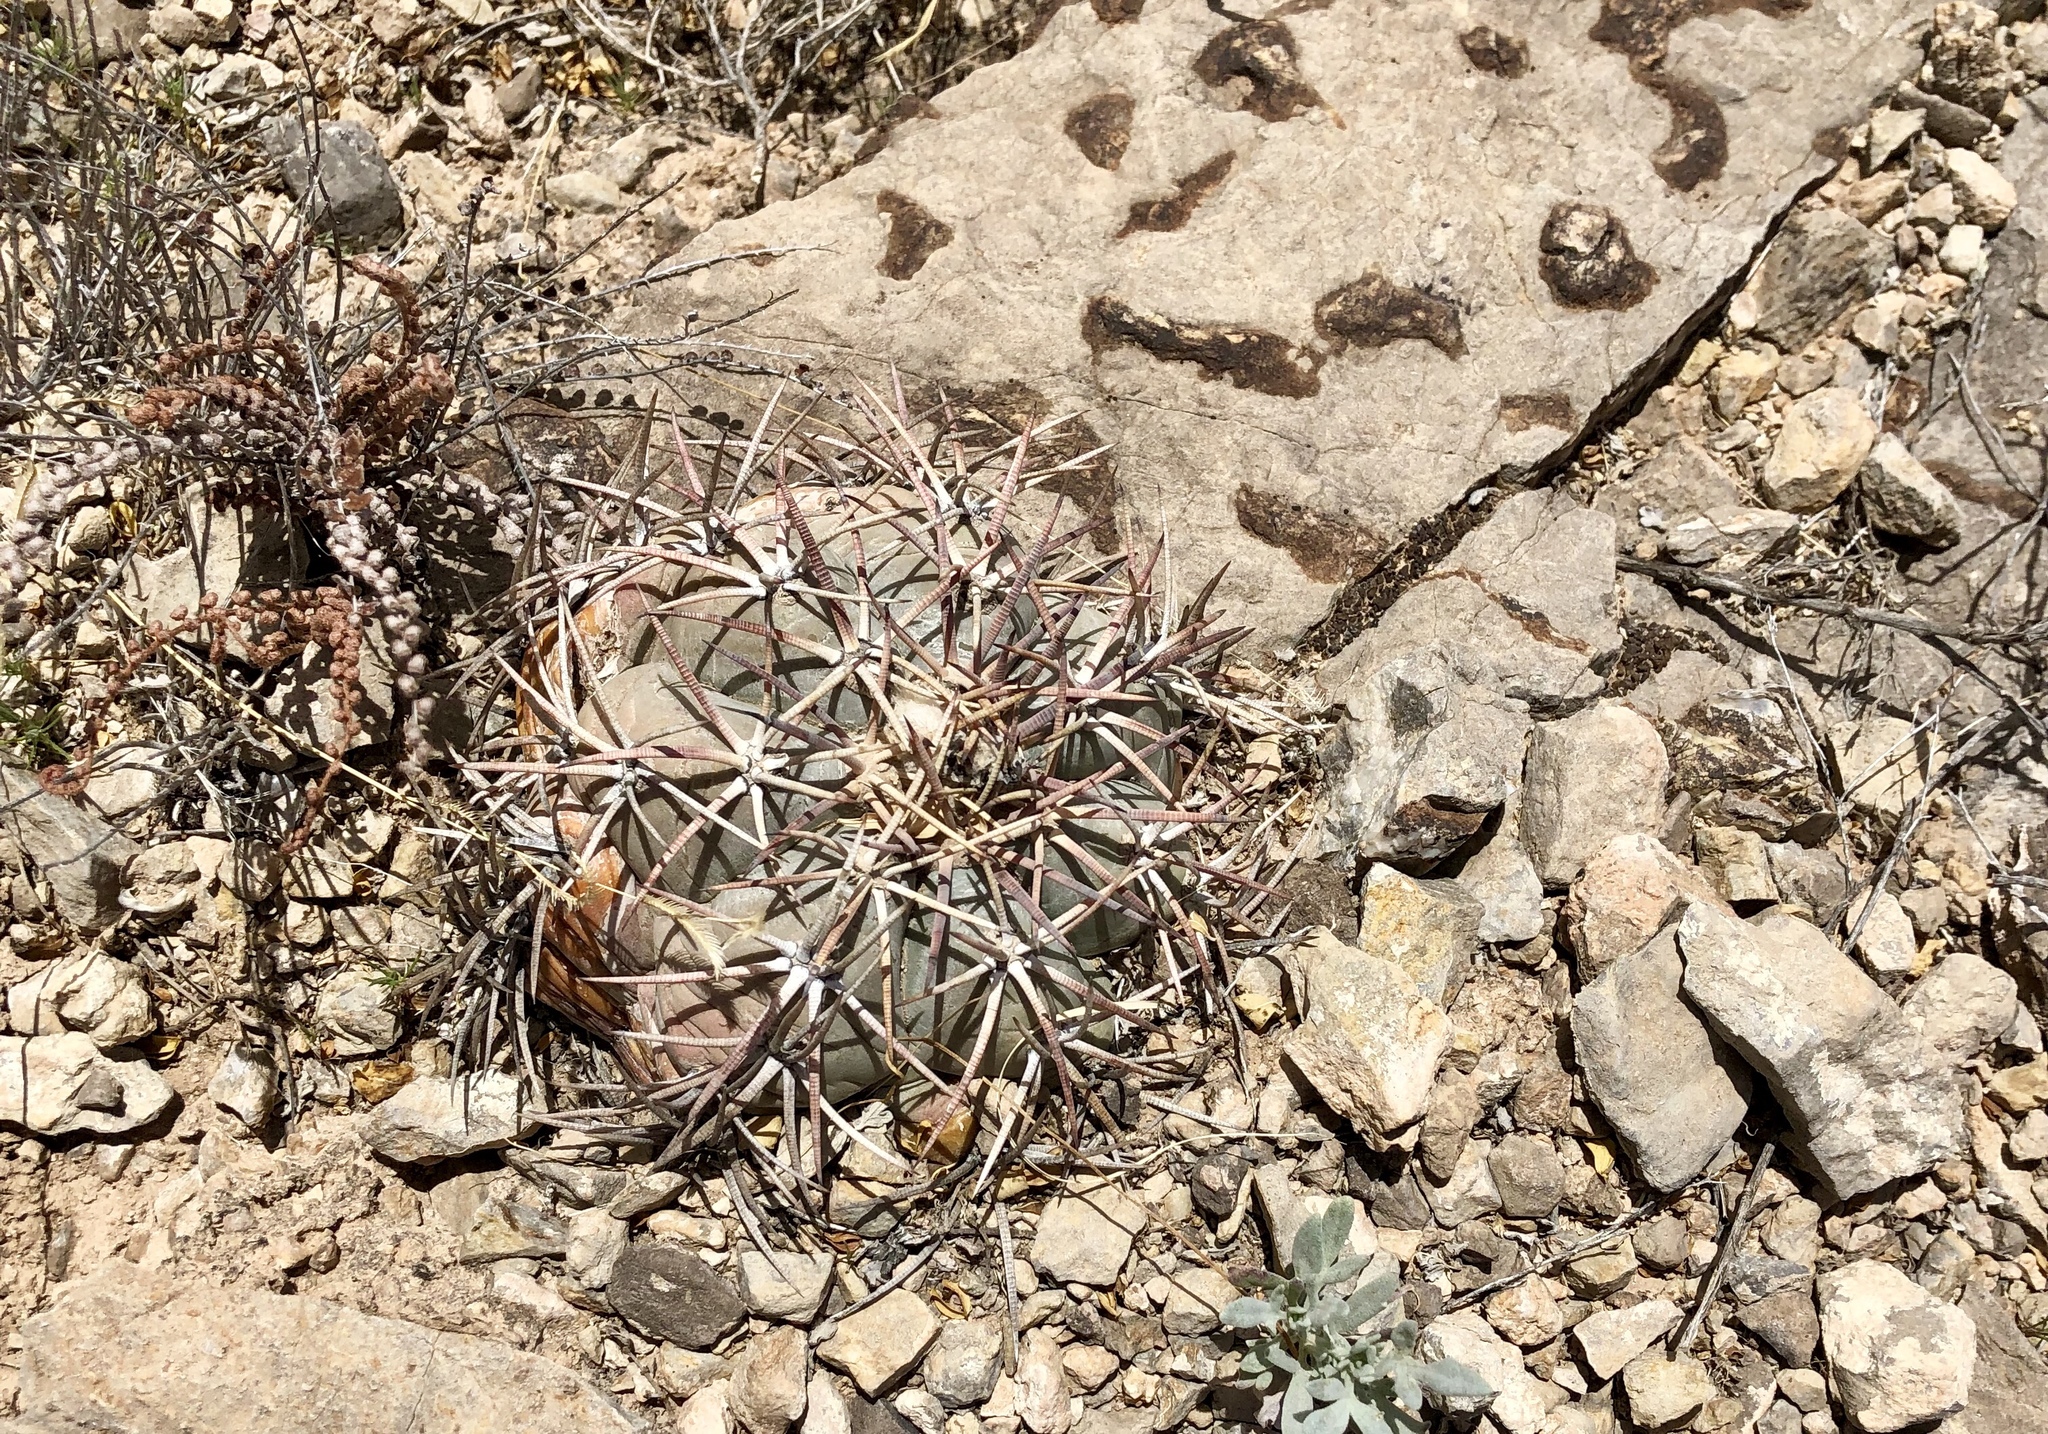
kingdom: Plantae
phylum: Tracheophyta
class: Magnoliopsida
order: Caryophyllales
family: Cactaceae
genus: Echinocactus
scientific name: Echinocactus horizonthalonius
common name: Devilshead
